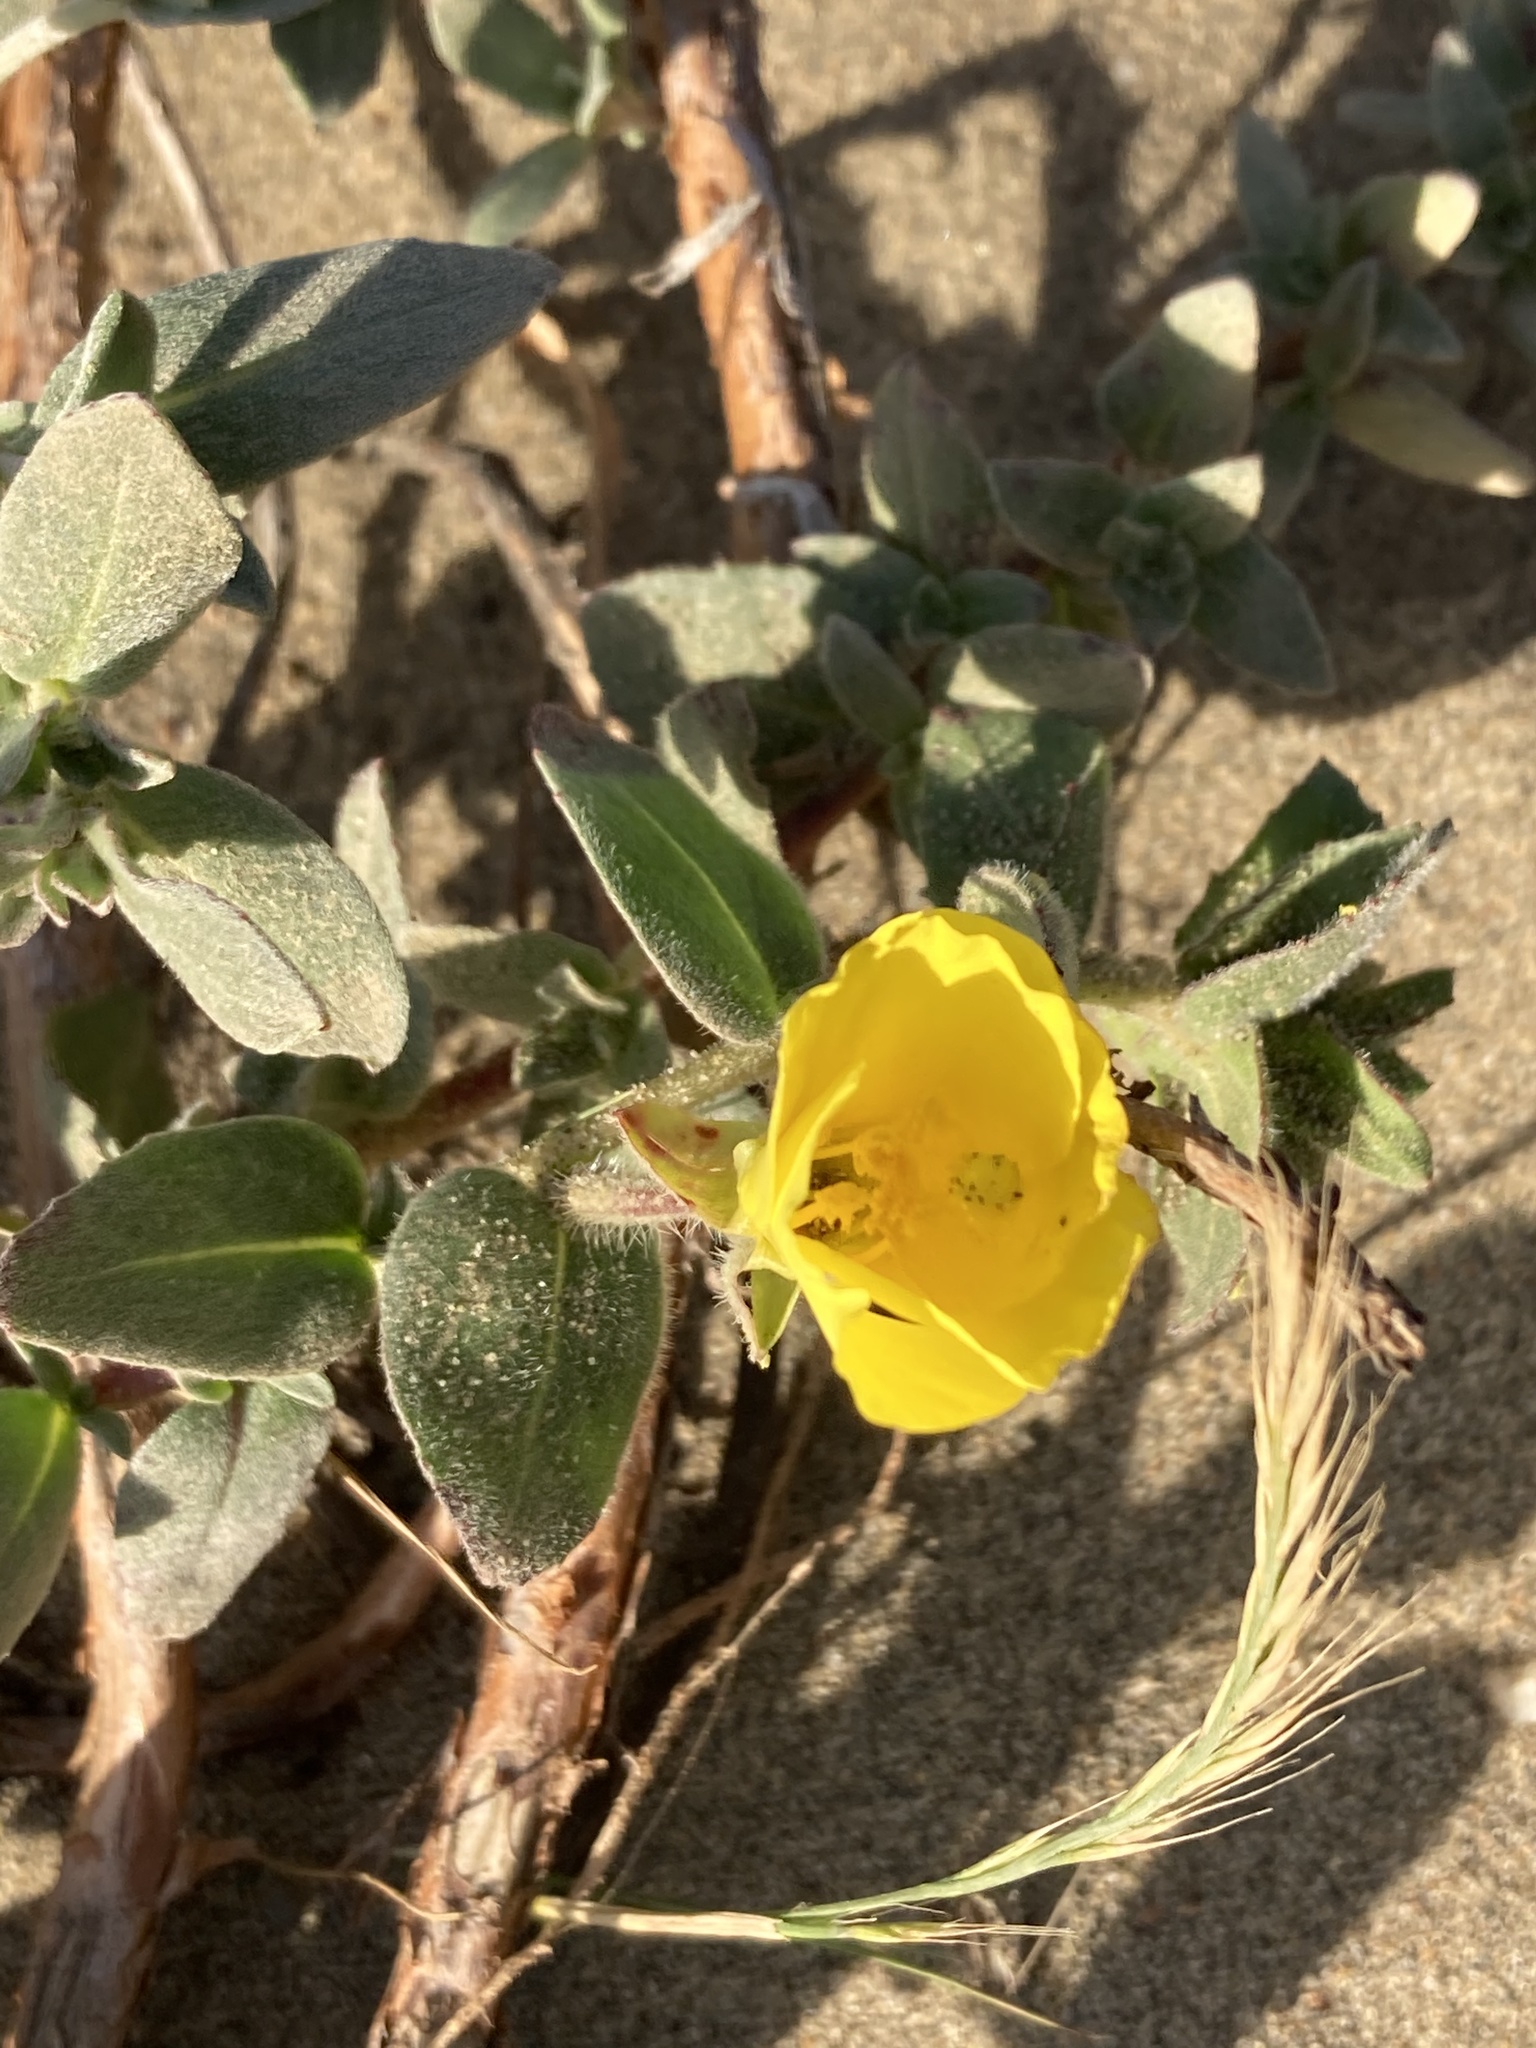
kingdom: Plantae
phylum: Tracheophyta
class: Magnoliopsida
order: Myrtales
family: Onagraceae
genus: Camissoniopsis
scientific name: Camissoniopsis cheiranthifolia
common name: Beach suncup
